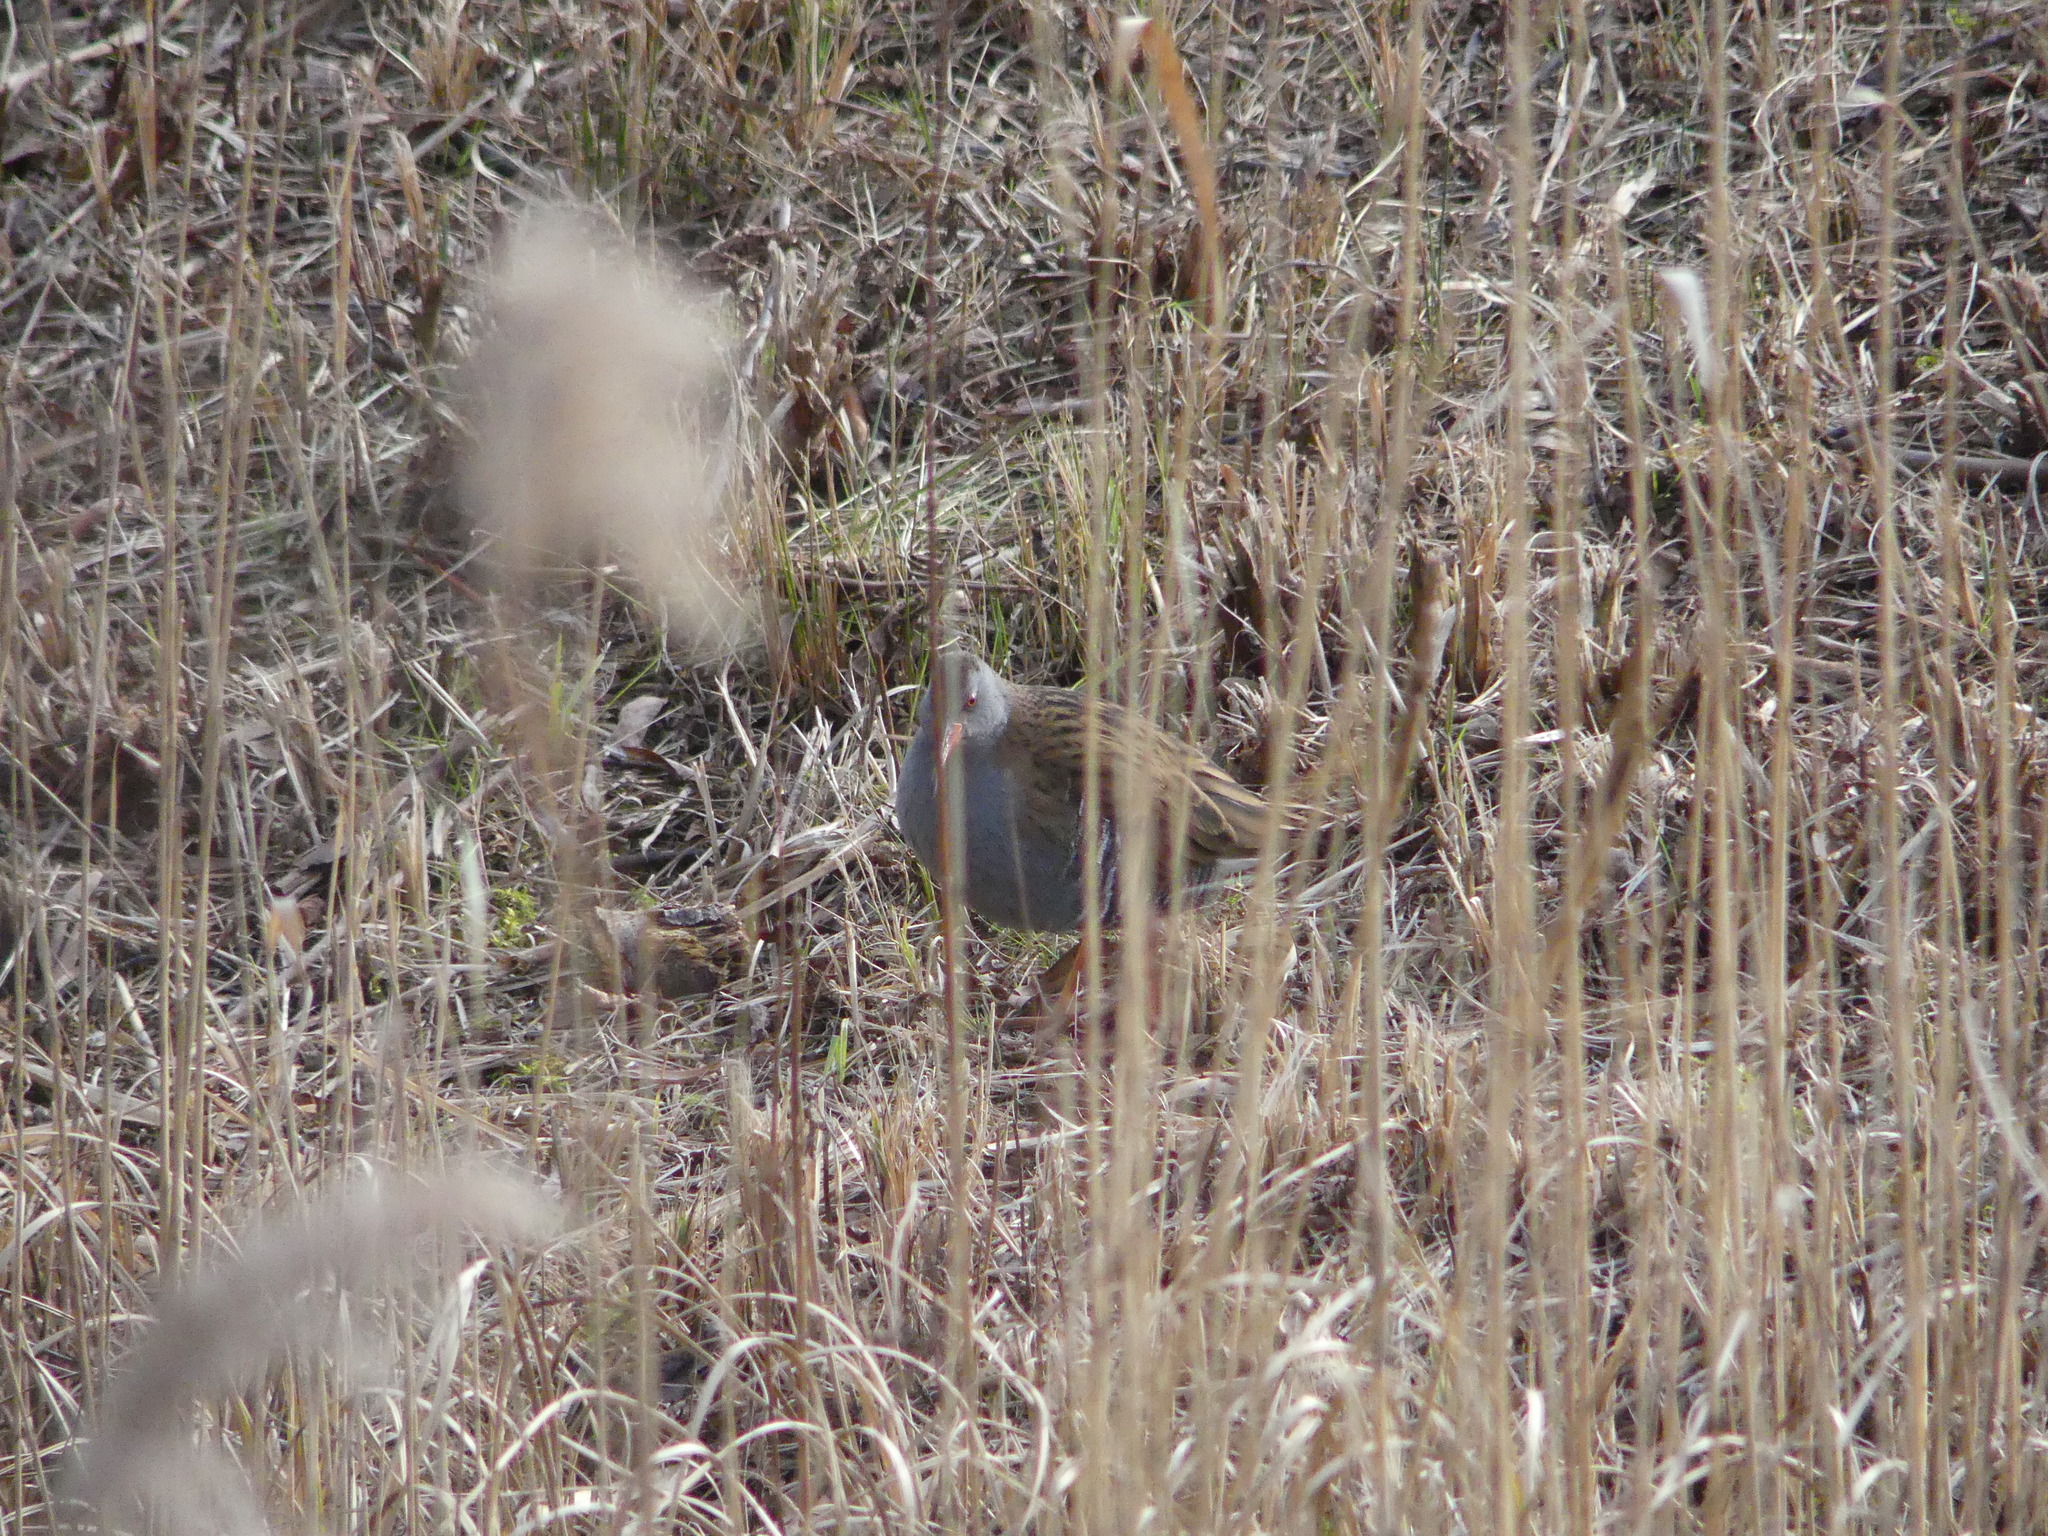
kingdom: Animalia
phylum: Chordata
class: Aves
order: Gruiformes
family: Rallidae
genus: Rallus
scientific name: Rallus aquaticus
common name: Water rail
